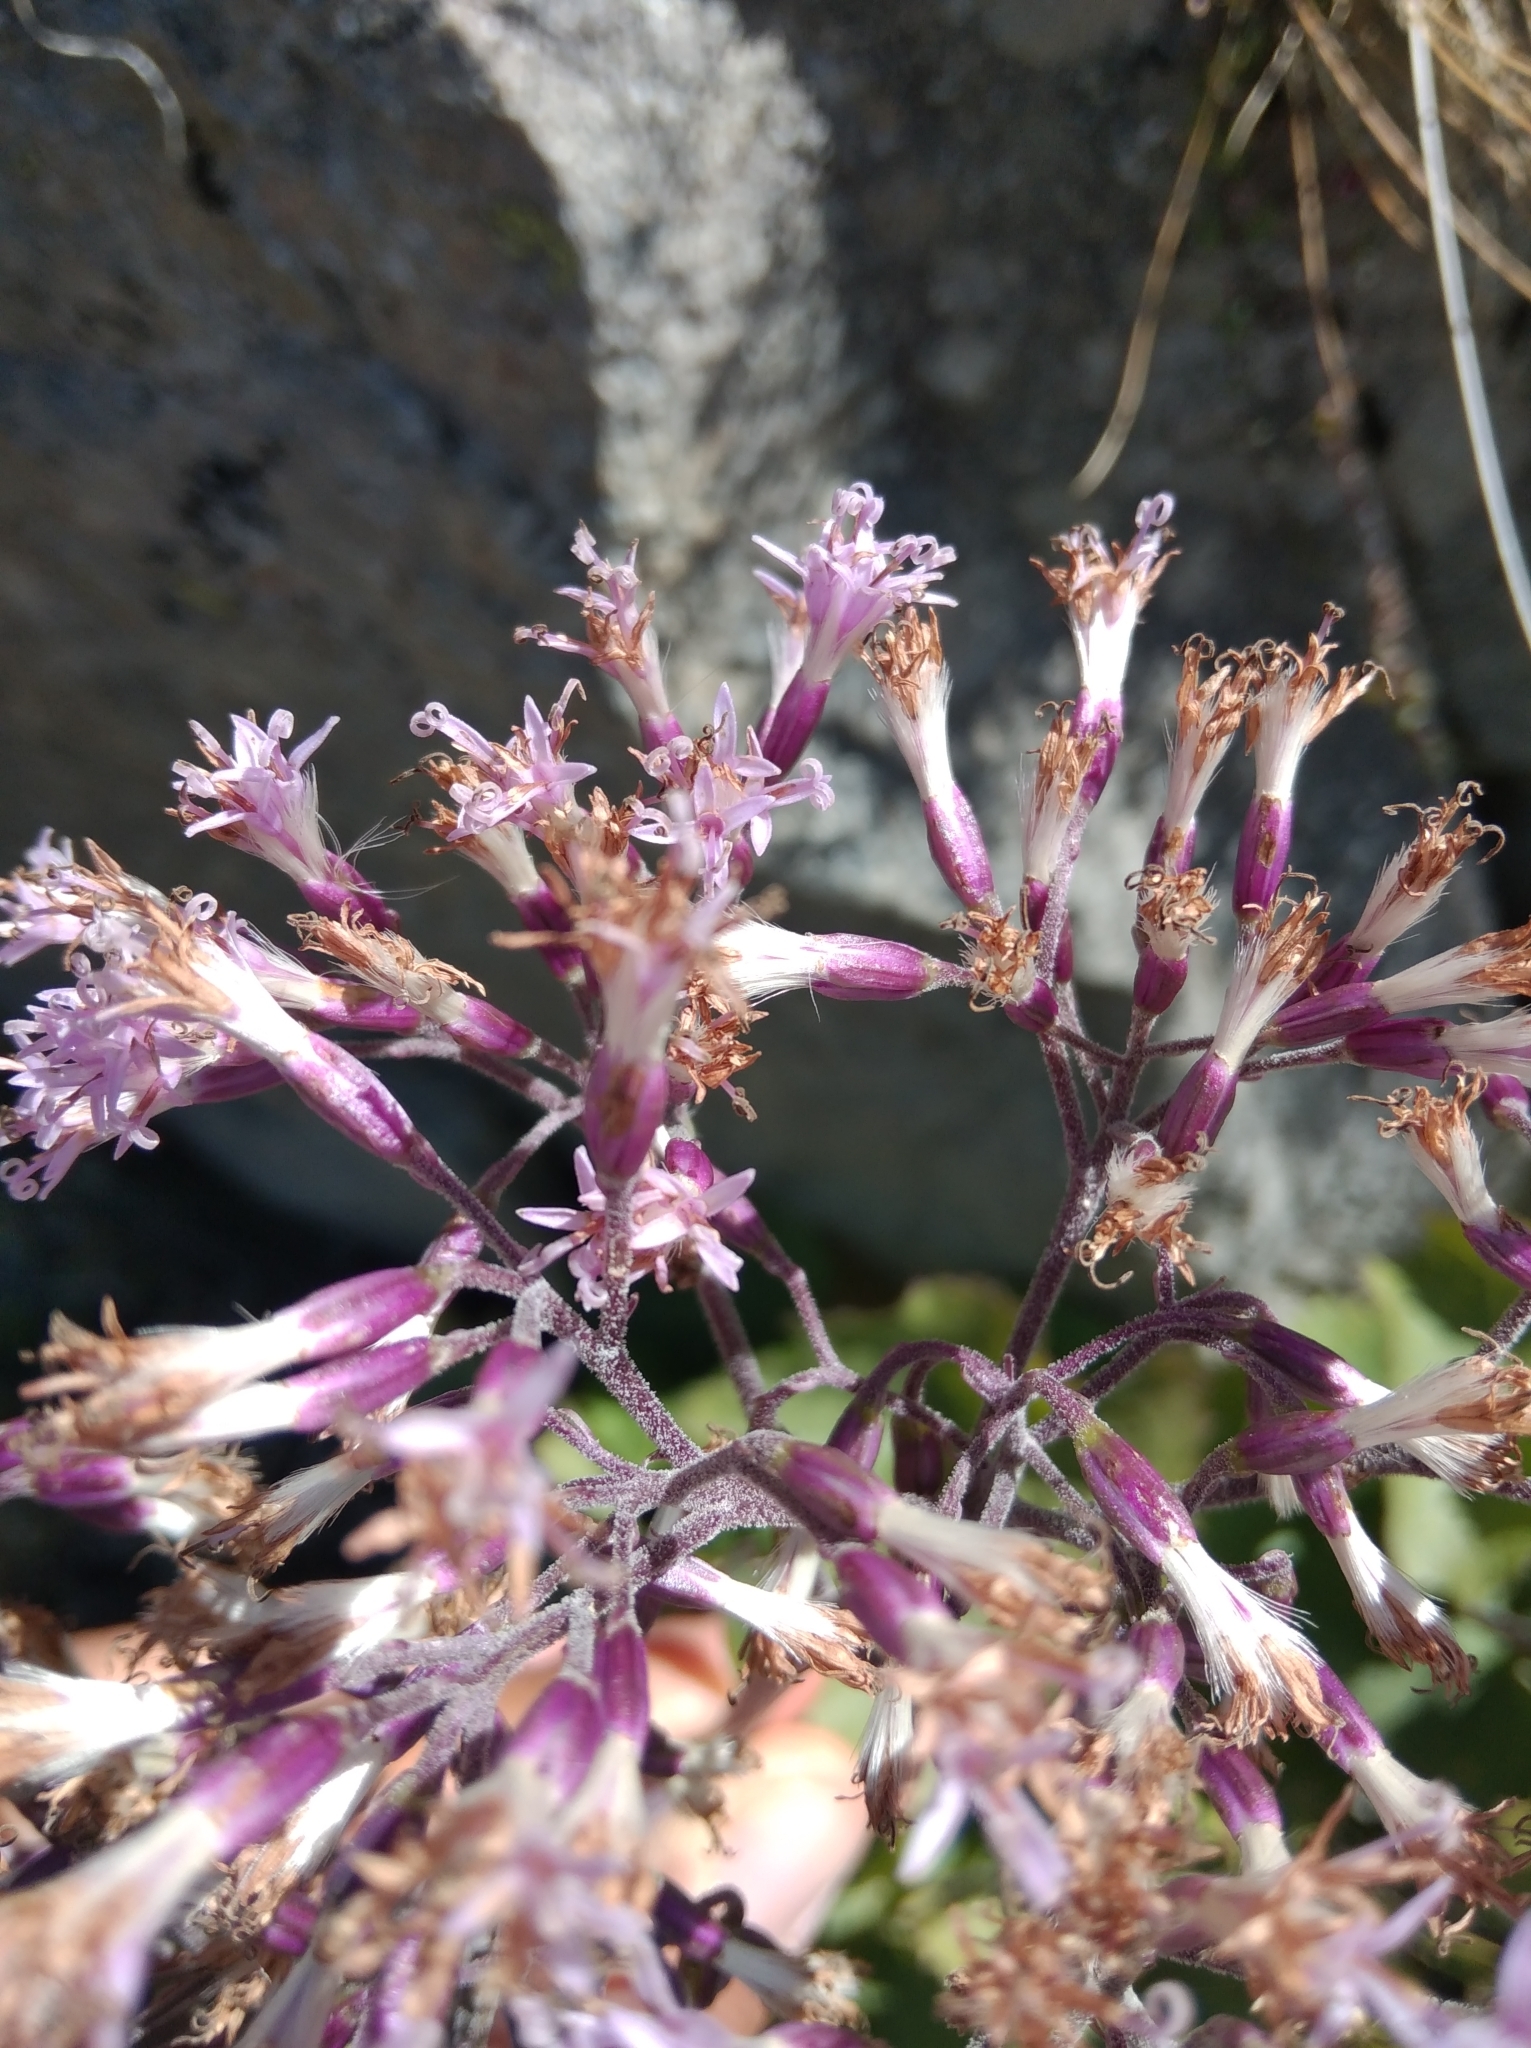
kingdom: Plantae
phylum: Tracheophyta
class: Magnoliopsida
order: Asterales
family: Asteraceae
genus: Adenostyles
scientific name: Adenostyles alliariae
